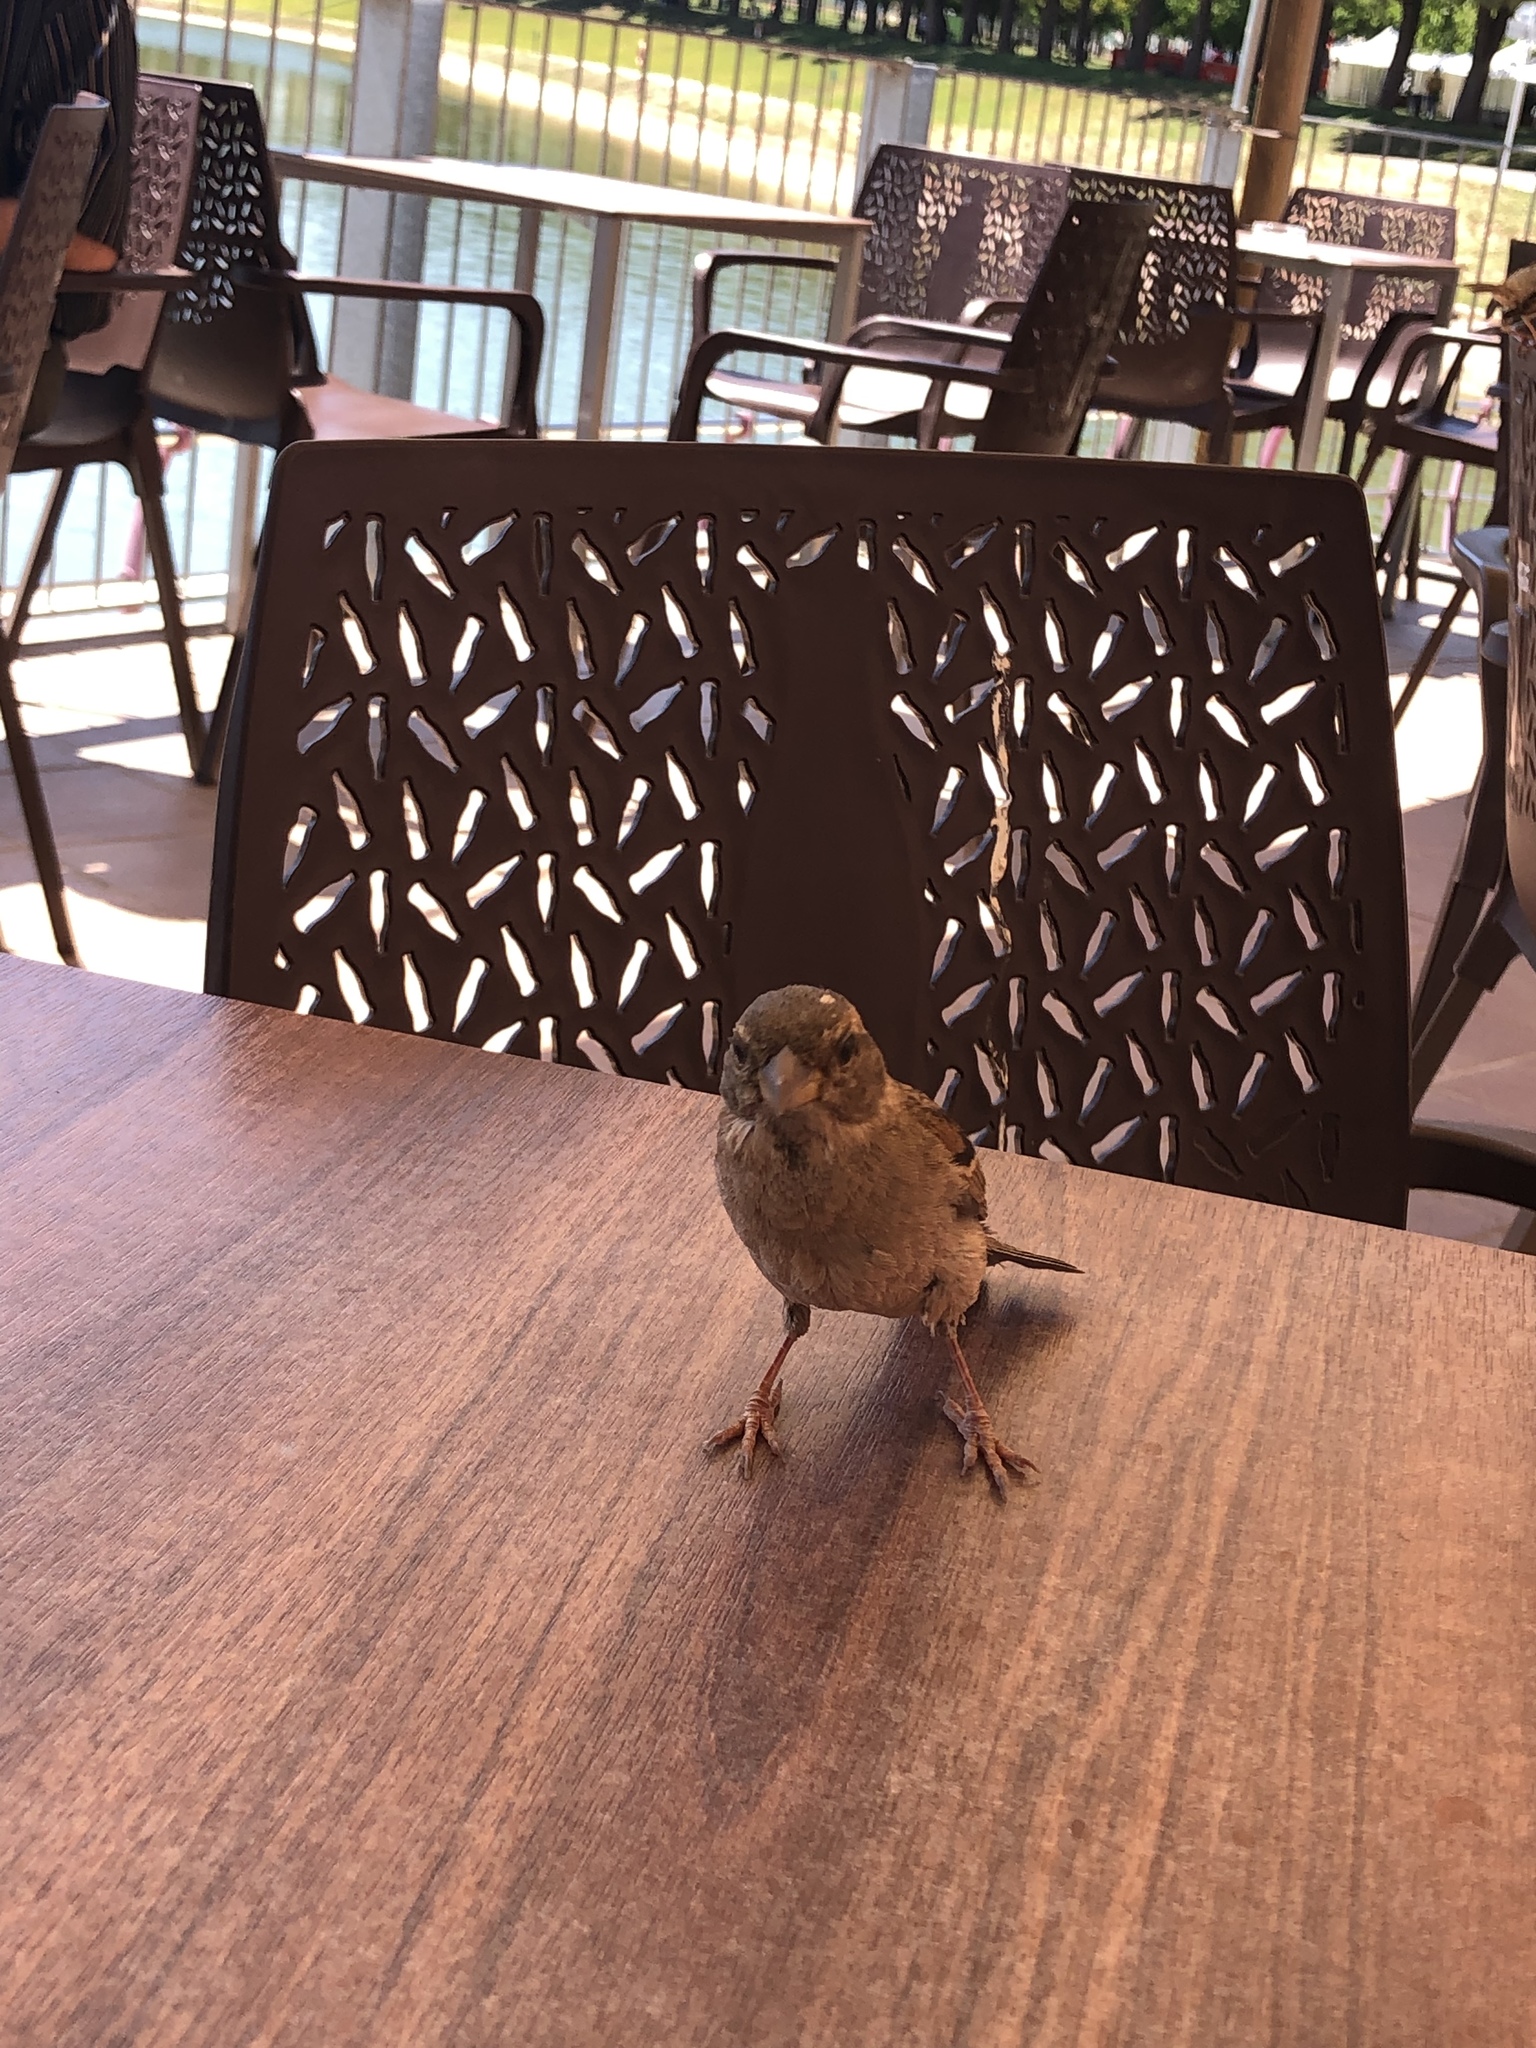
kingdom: Animalia
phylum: Chordata
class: Aves
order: Passeriformes
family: Passeridae
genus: Passer
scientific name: Passer domesticus
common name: House sparrow
